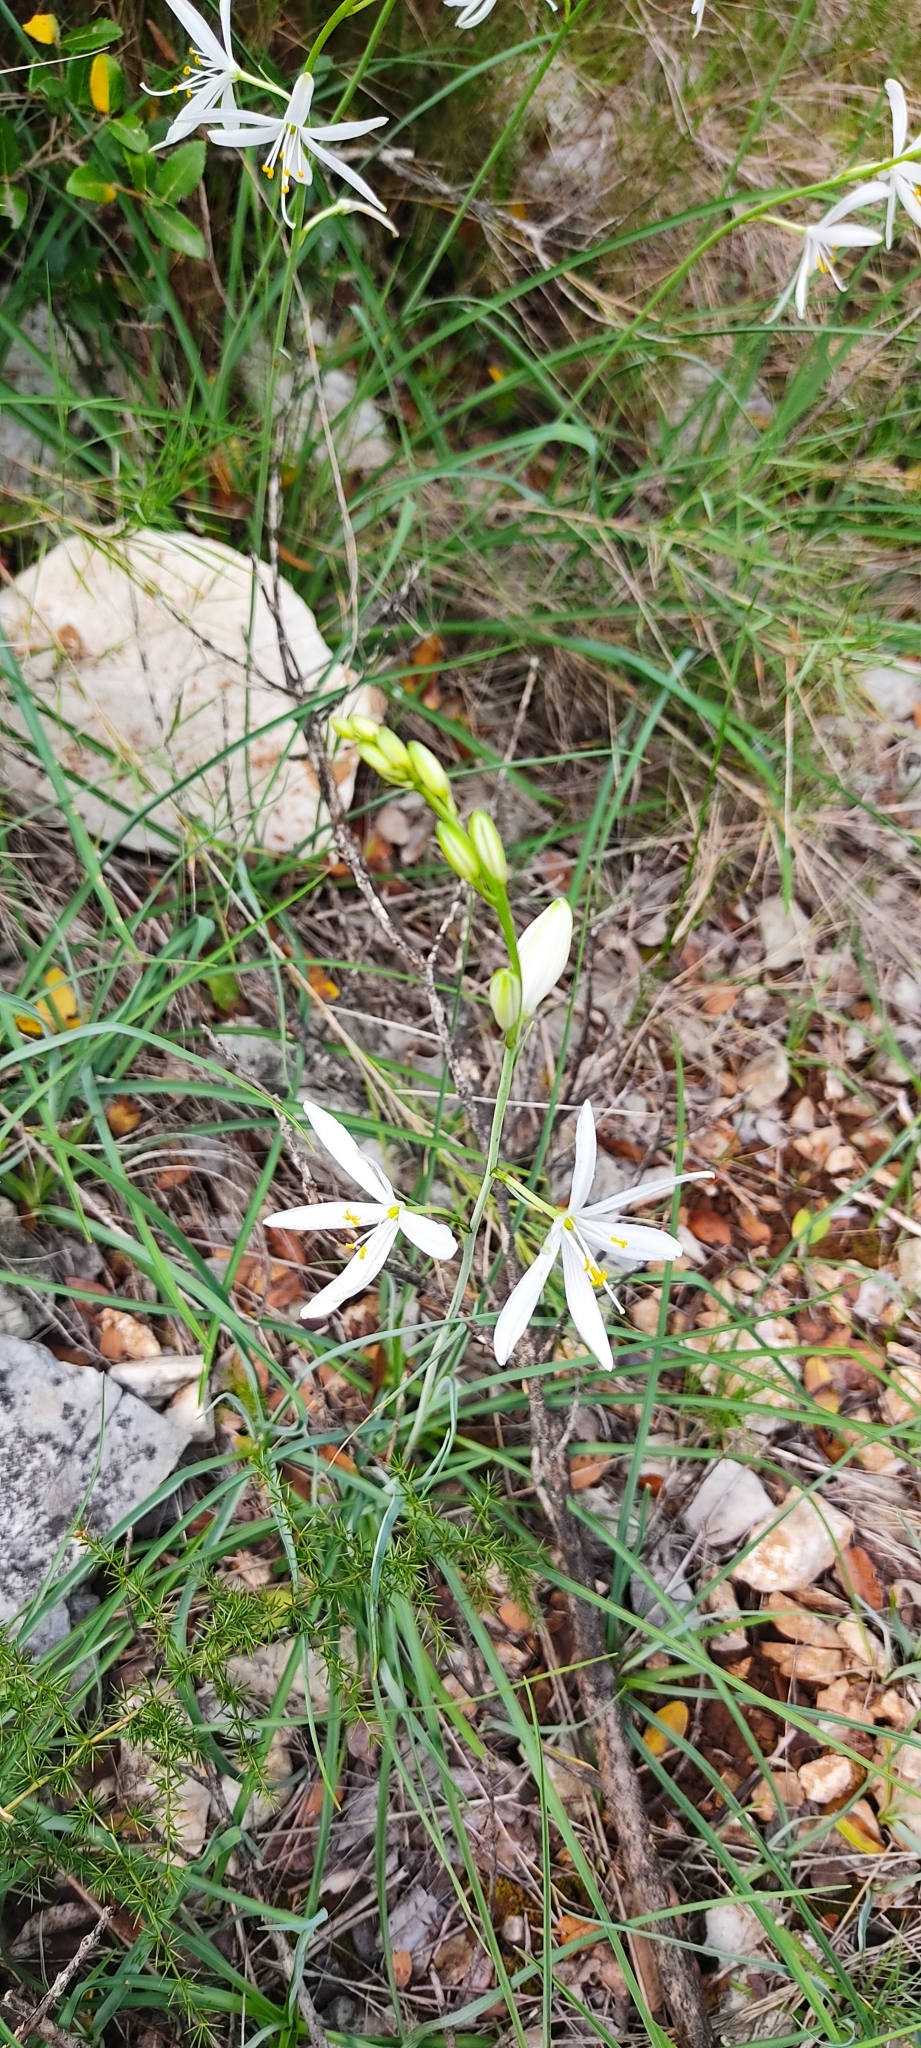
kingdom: Plantae
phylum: Tracheophyta
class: Liliopsida
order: Asparagales
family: Asparagaceae
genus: Anthericum
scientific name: Anthericum liliago
